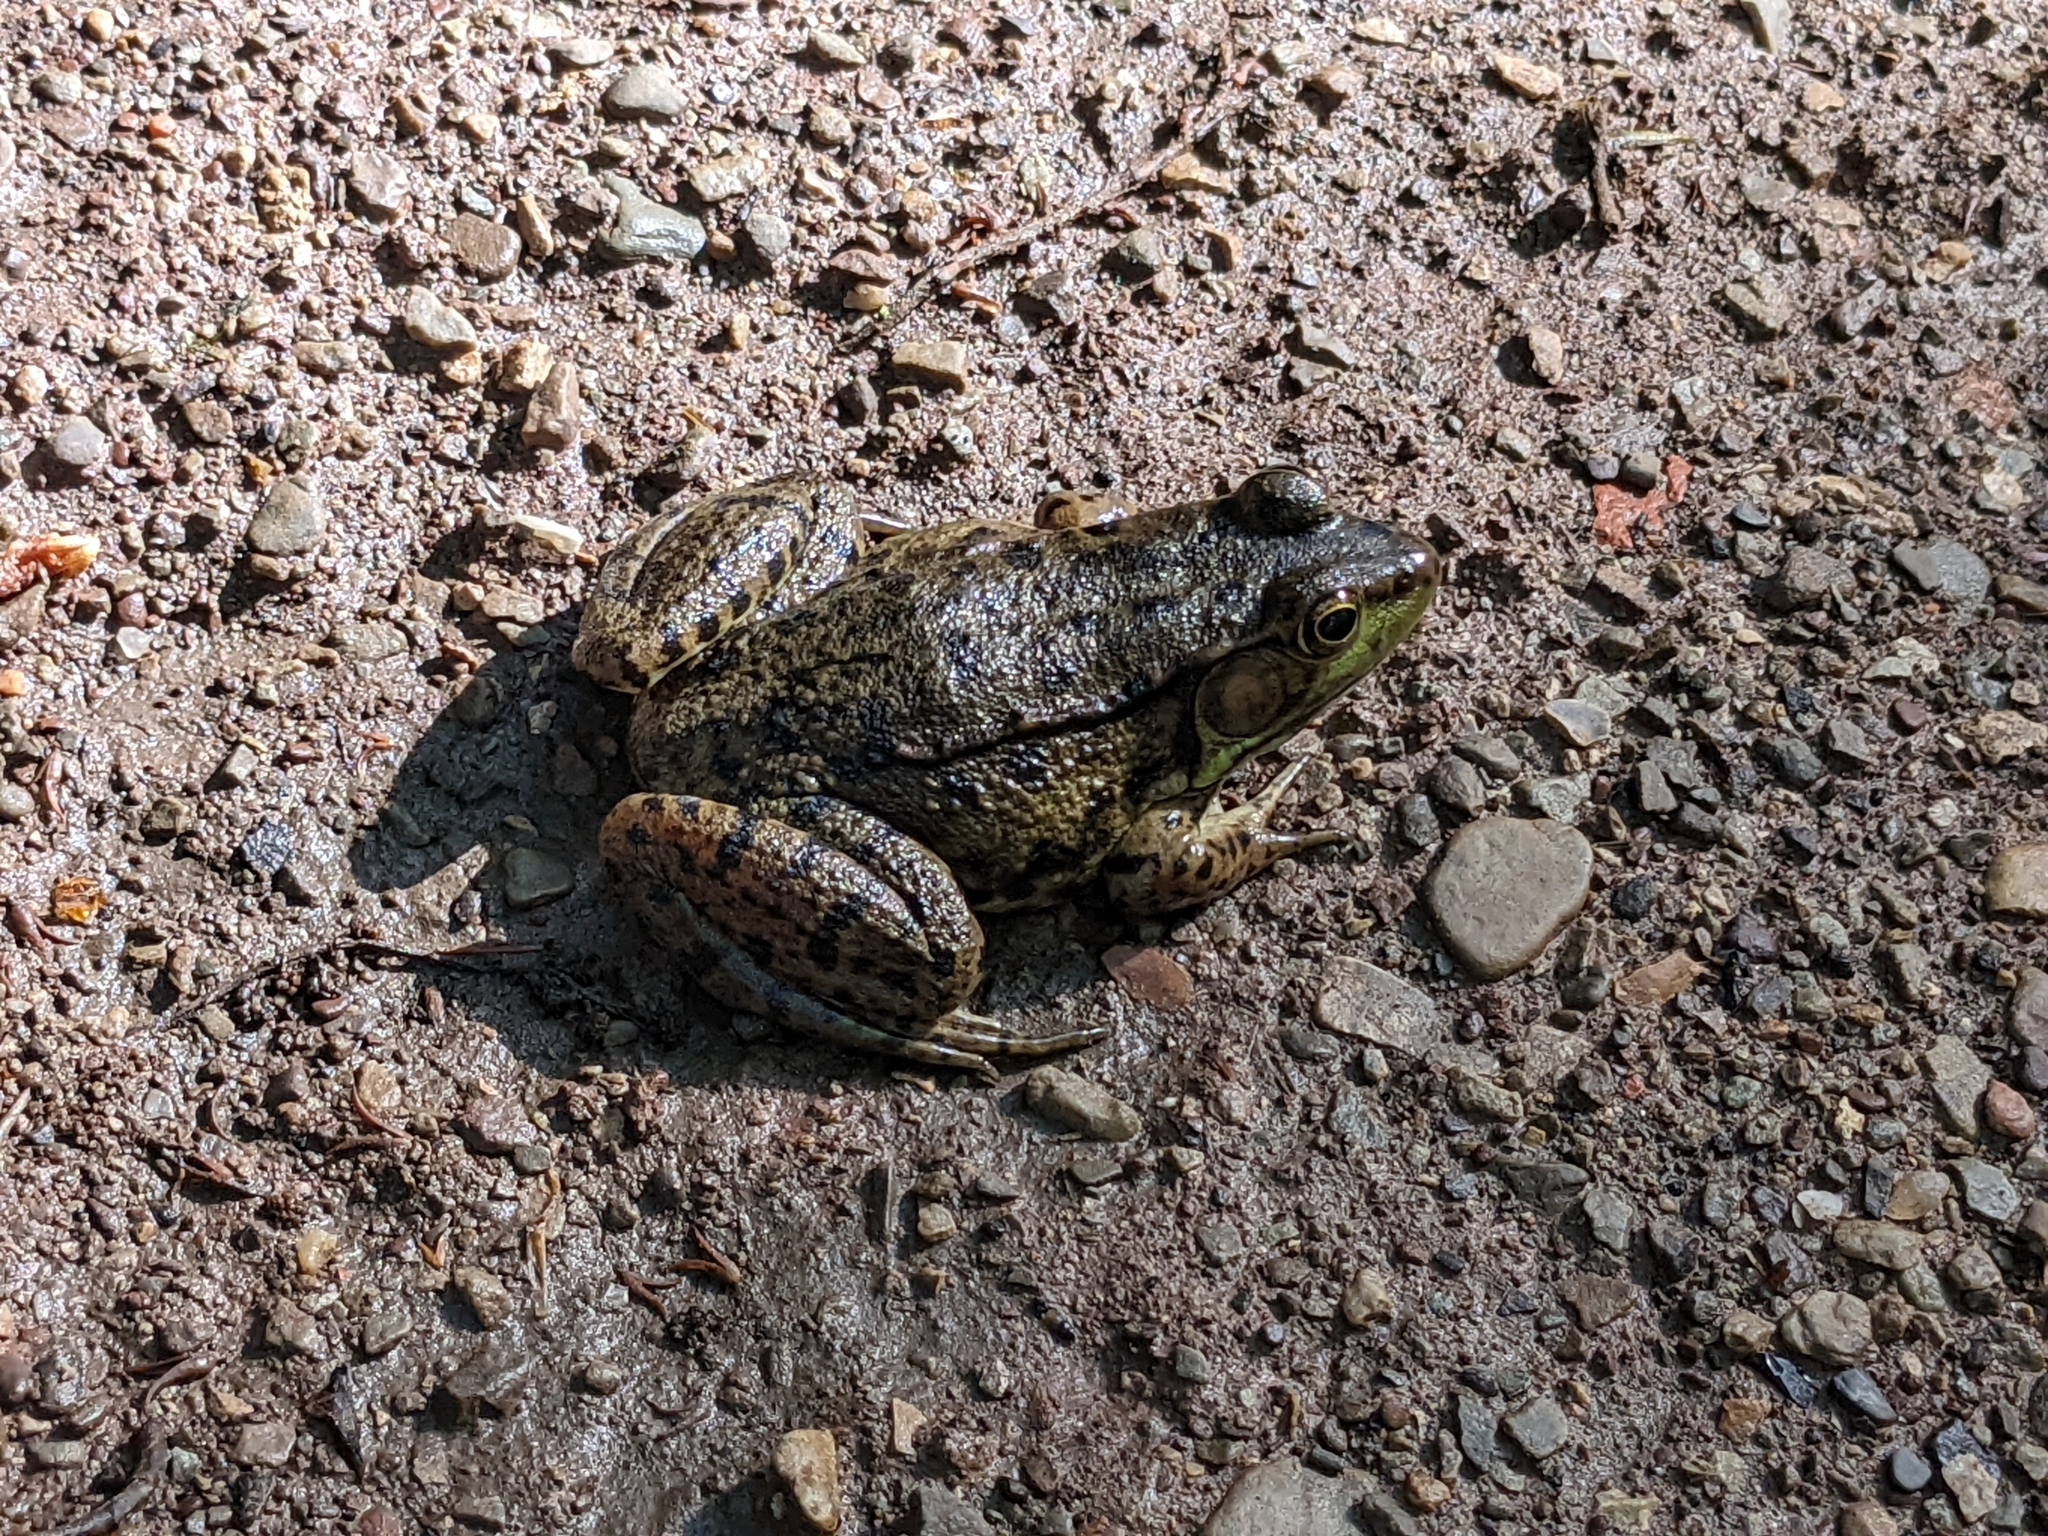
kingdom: Animalia
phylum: Chordata
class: Amphibia
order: Anura
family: Ranidae
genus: Lithobates
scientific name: Lithobates clamitans
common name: Green frog
